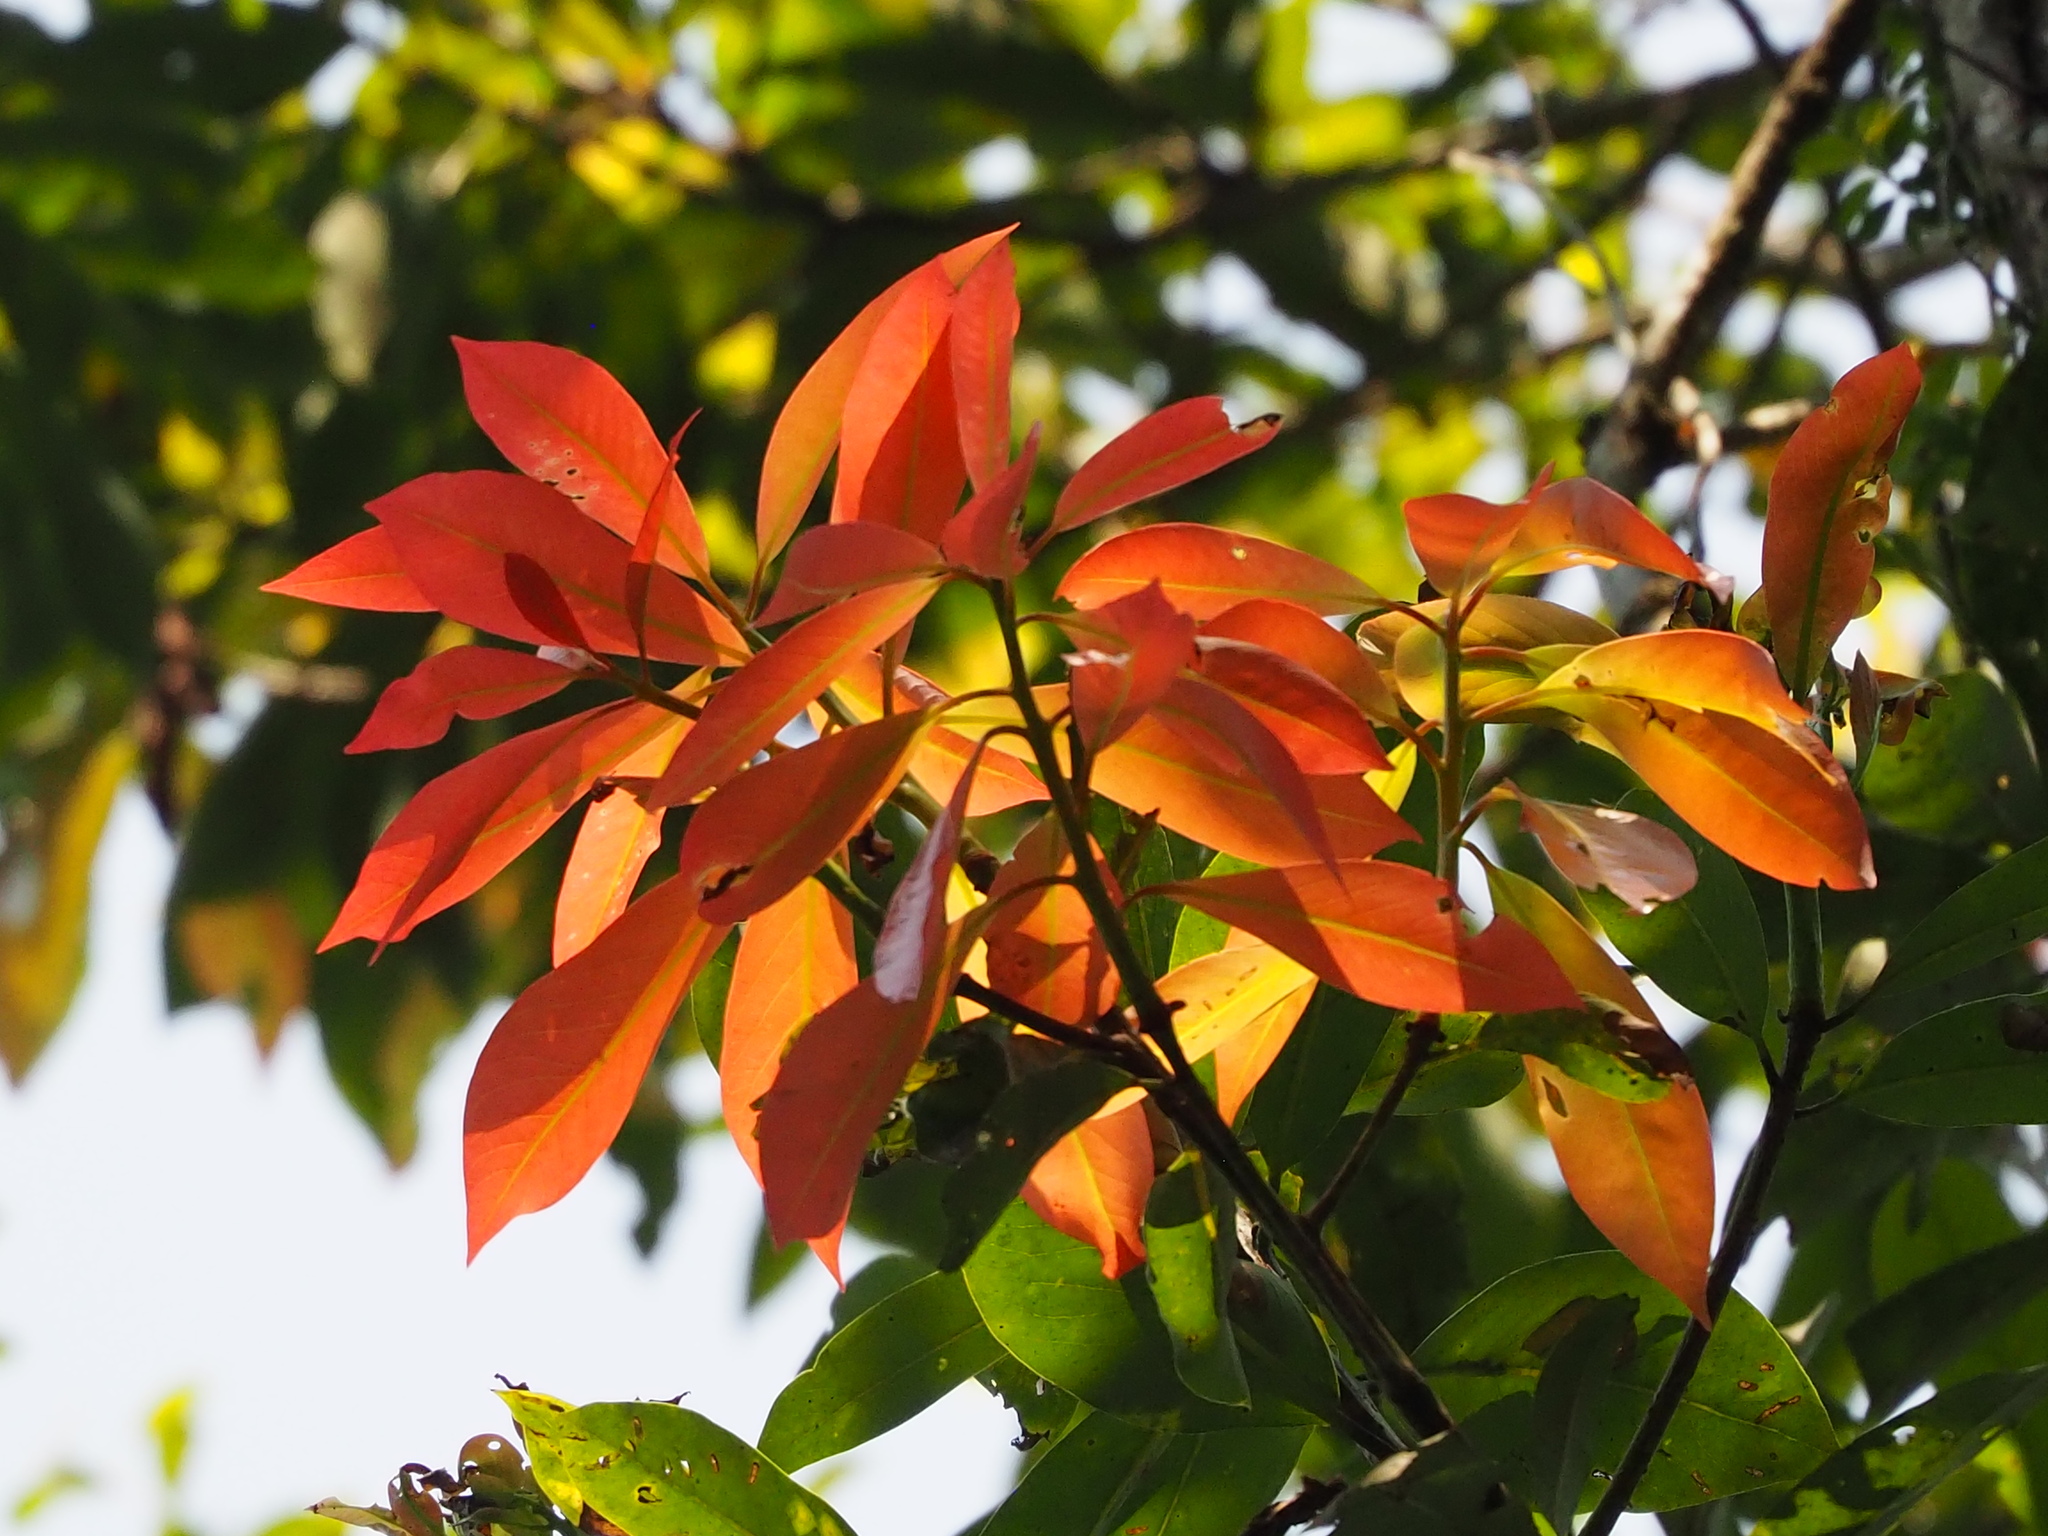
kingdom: Plantae
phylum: Tracheophyta
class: Magnoliopsida
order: Laurales
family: Lauraceae
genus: Machilus
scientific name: Machilus thunbergii
